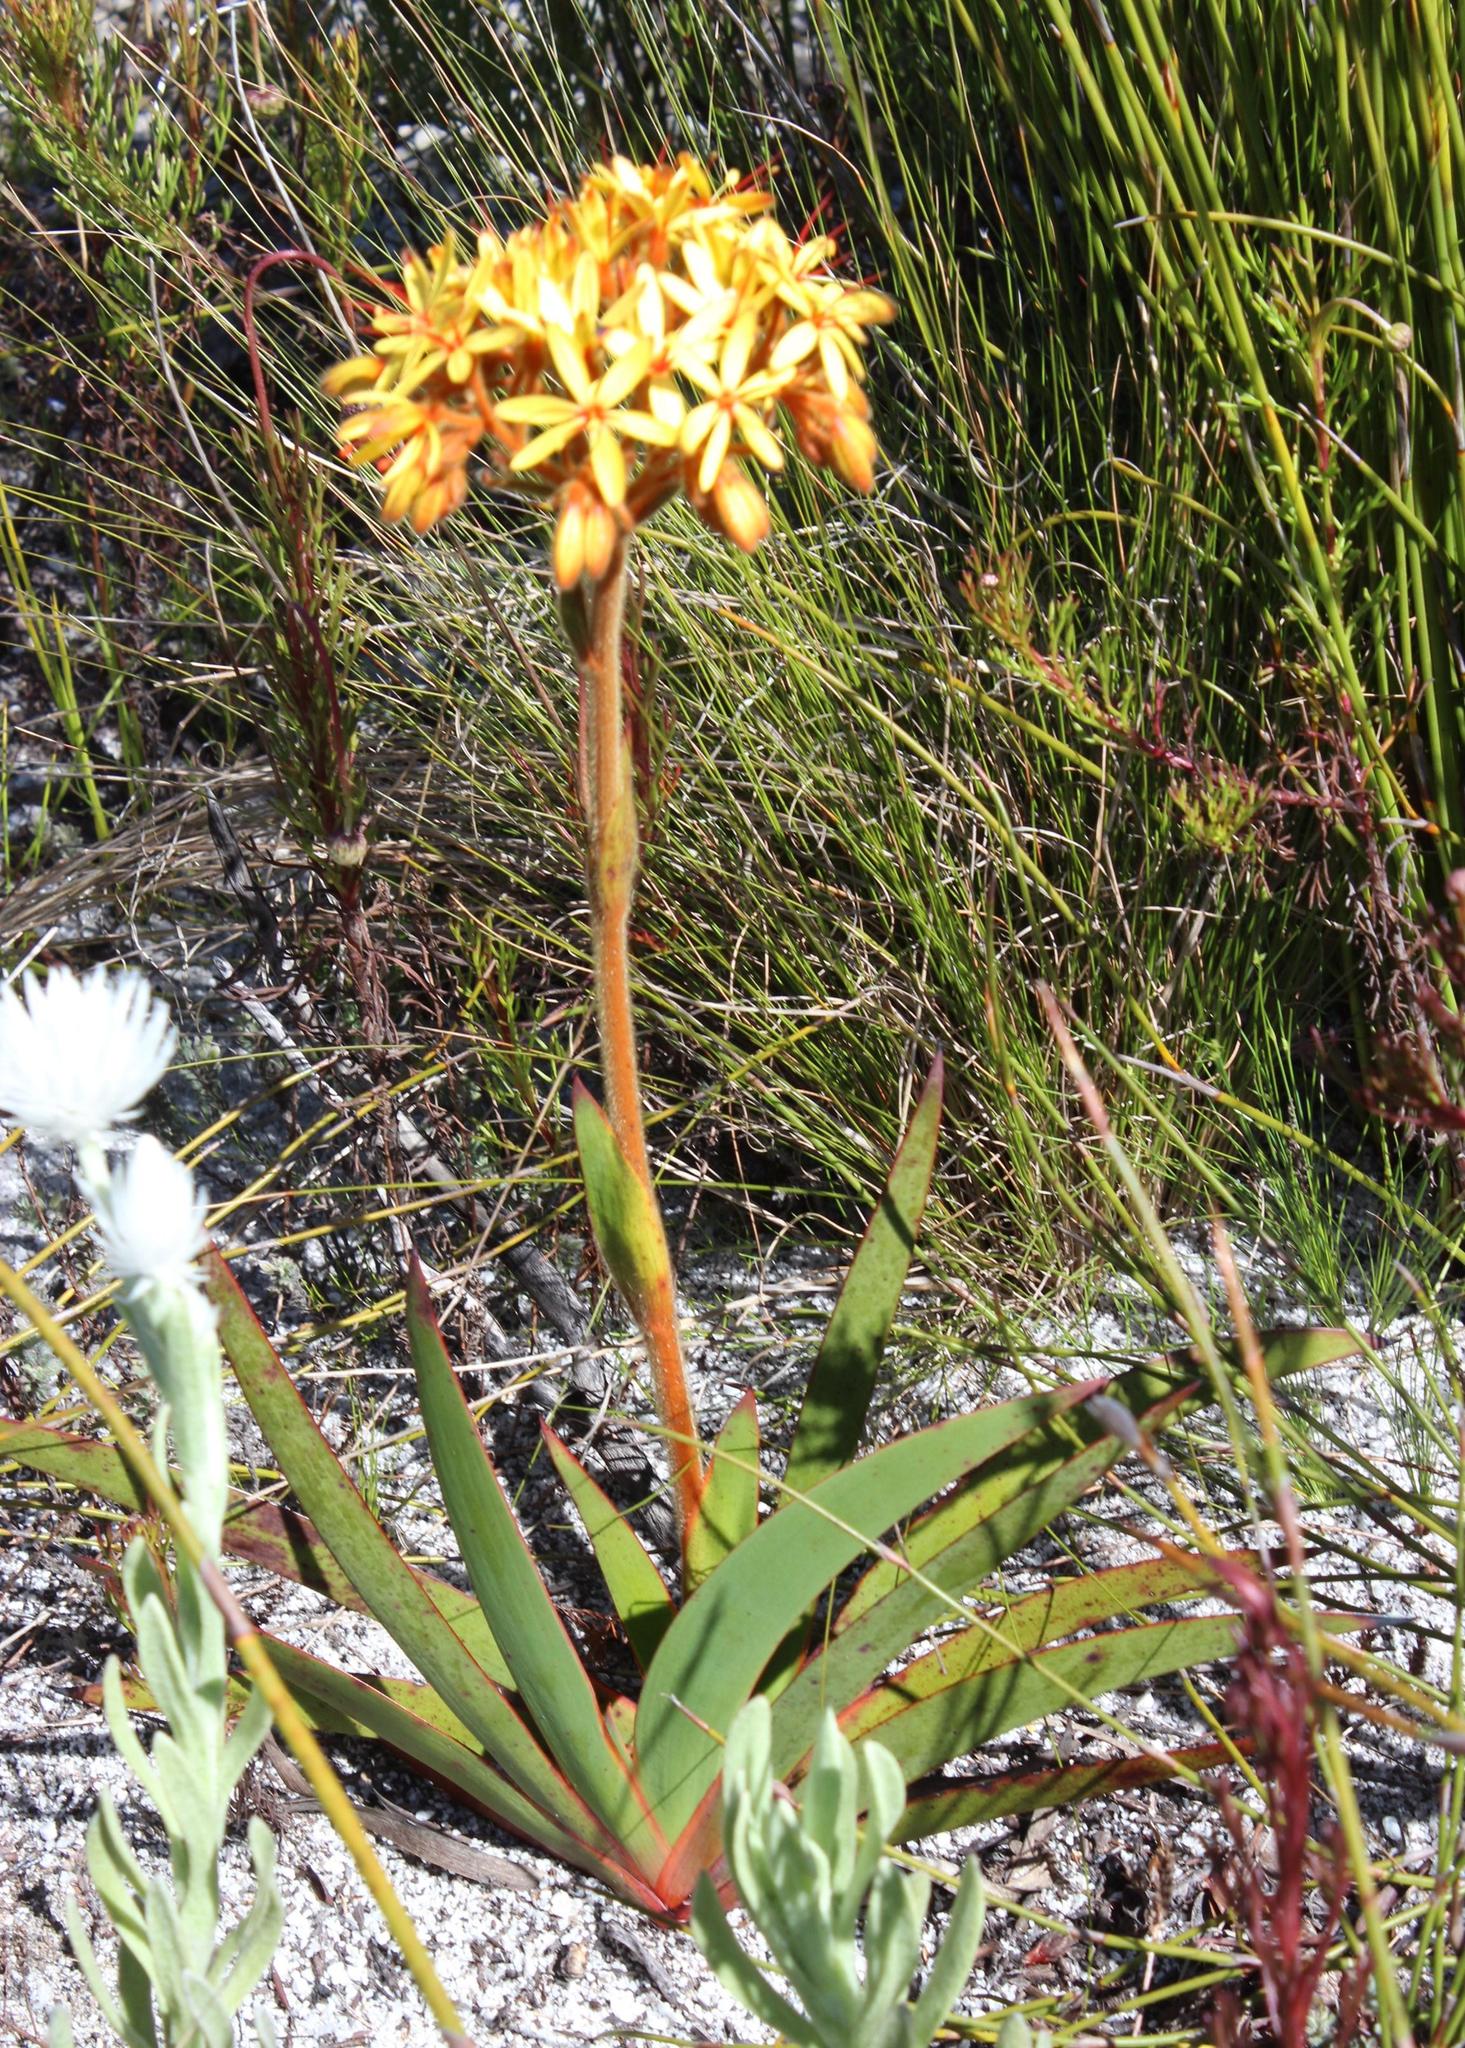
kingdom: Plantae
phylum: Tracheophyta
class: Liliopsida
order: Commelinales
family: Haemodoraceae
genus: Dilatris
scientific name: Dilatris viscosa
